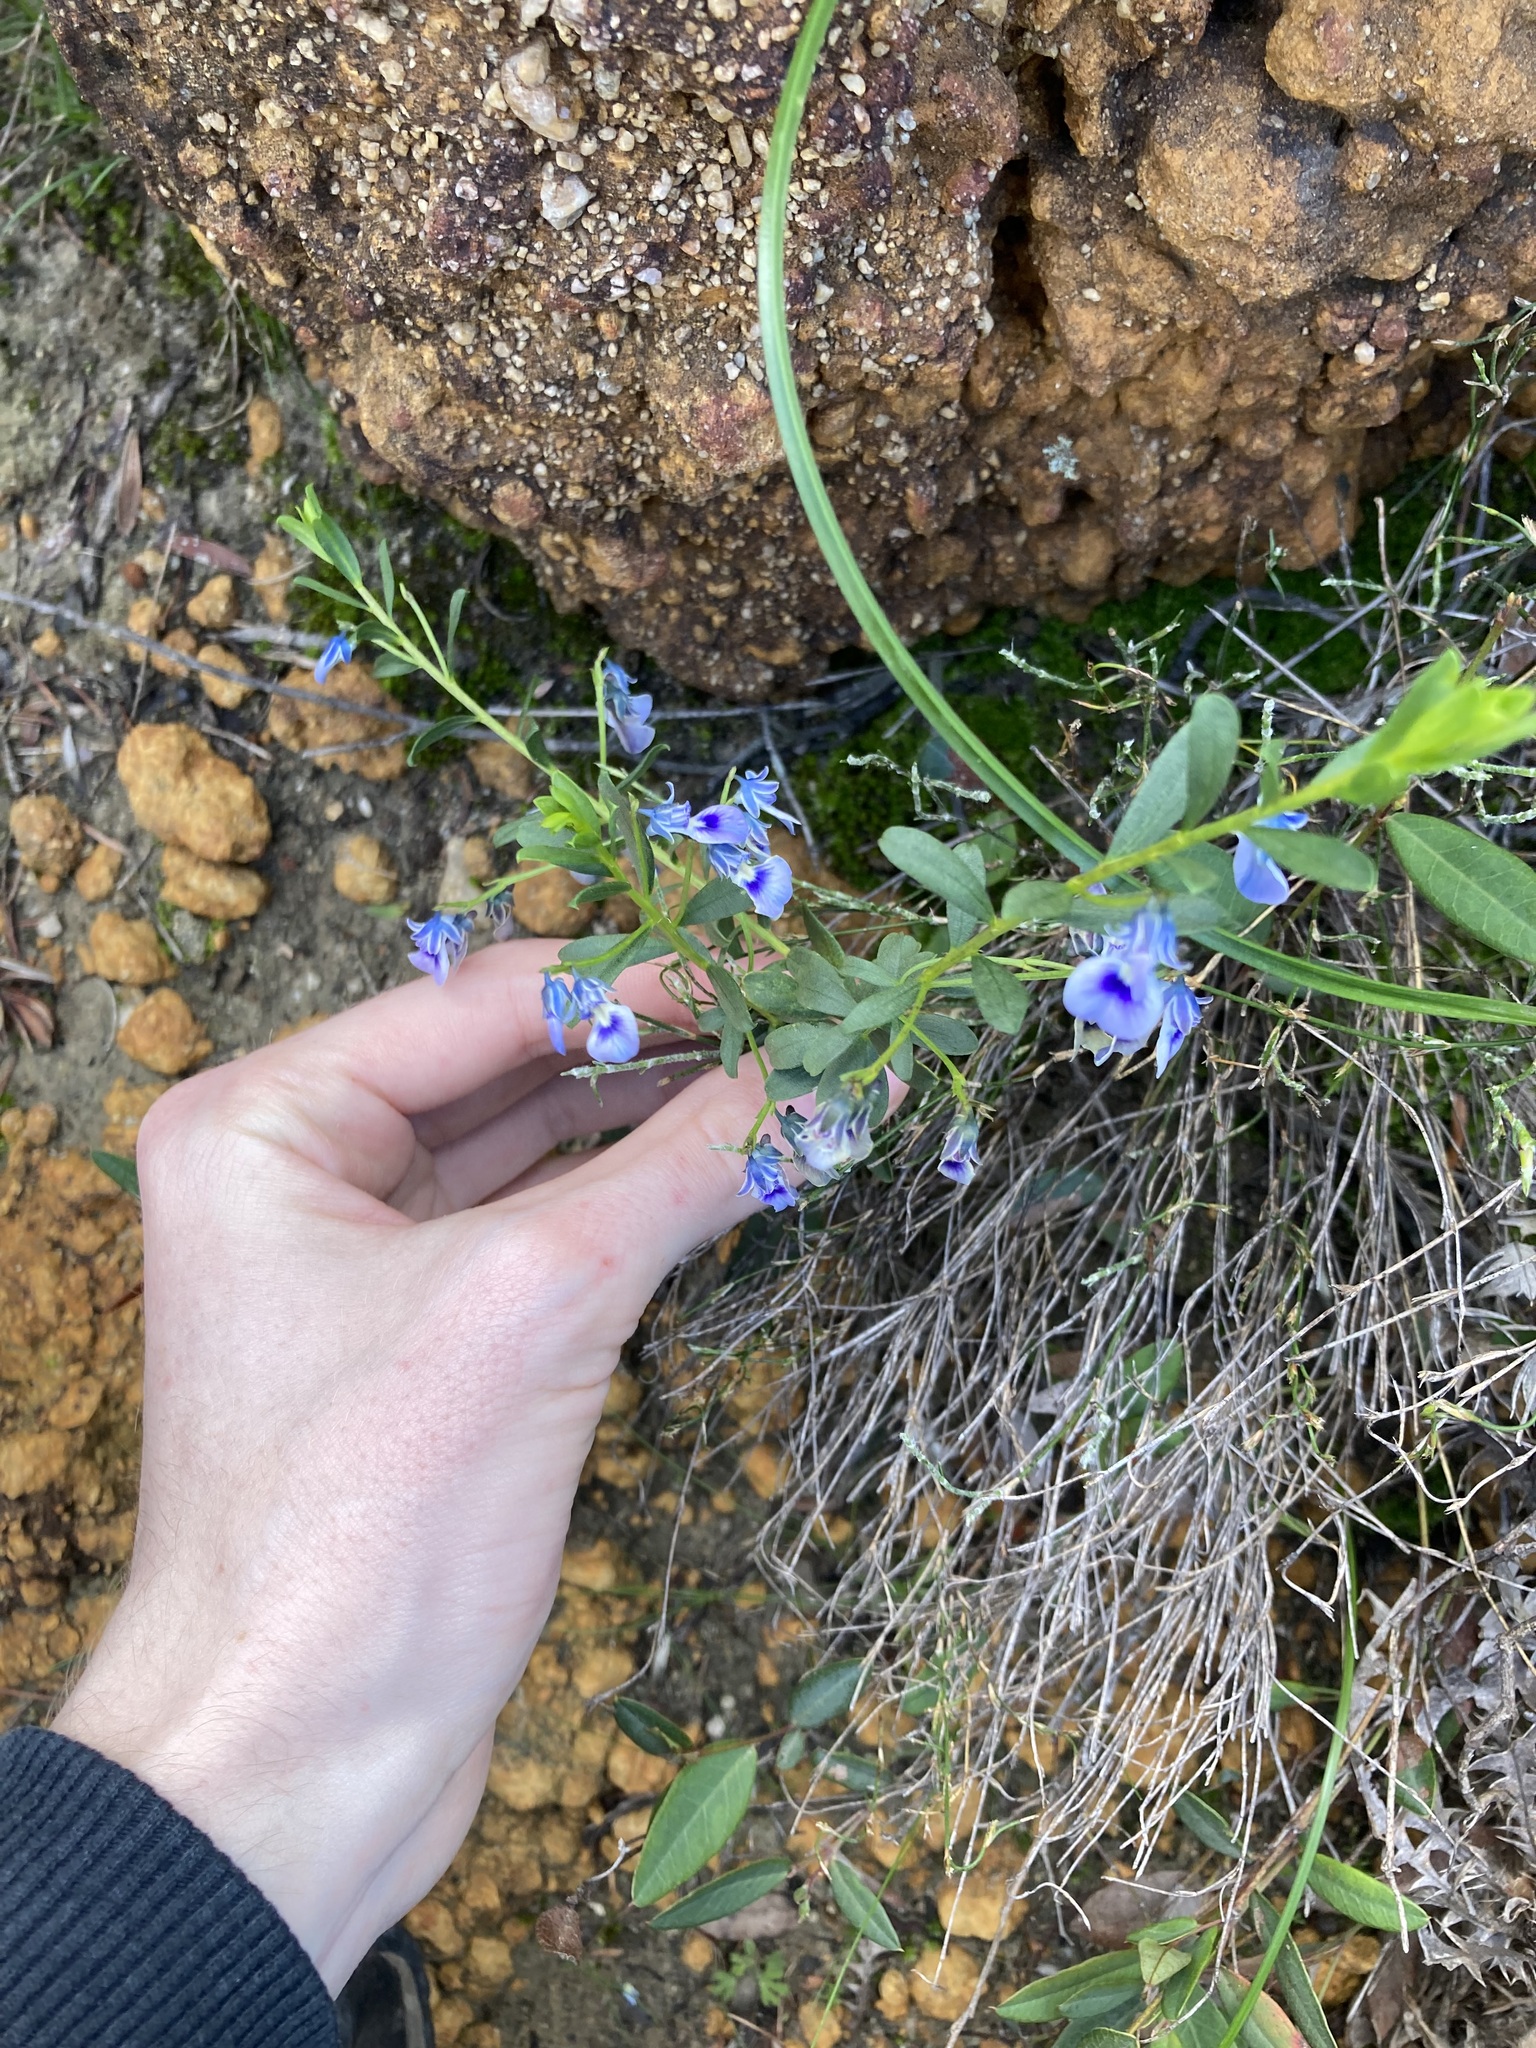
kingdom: Plantae
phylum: Tracheophyta
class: Magnoliopsida
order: Malpighiales
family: Violaceae
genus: Pigea
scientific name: Pigea floribunda
